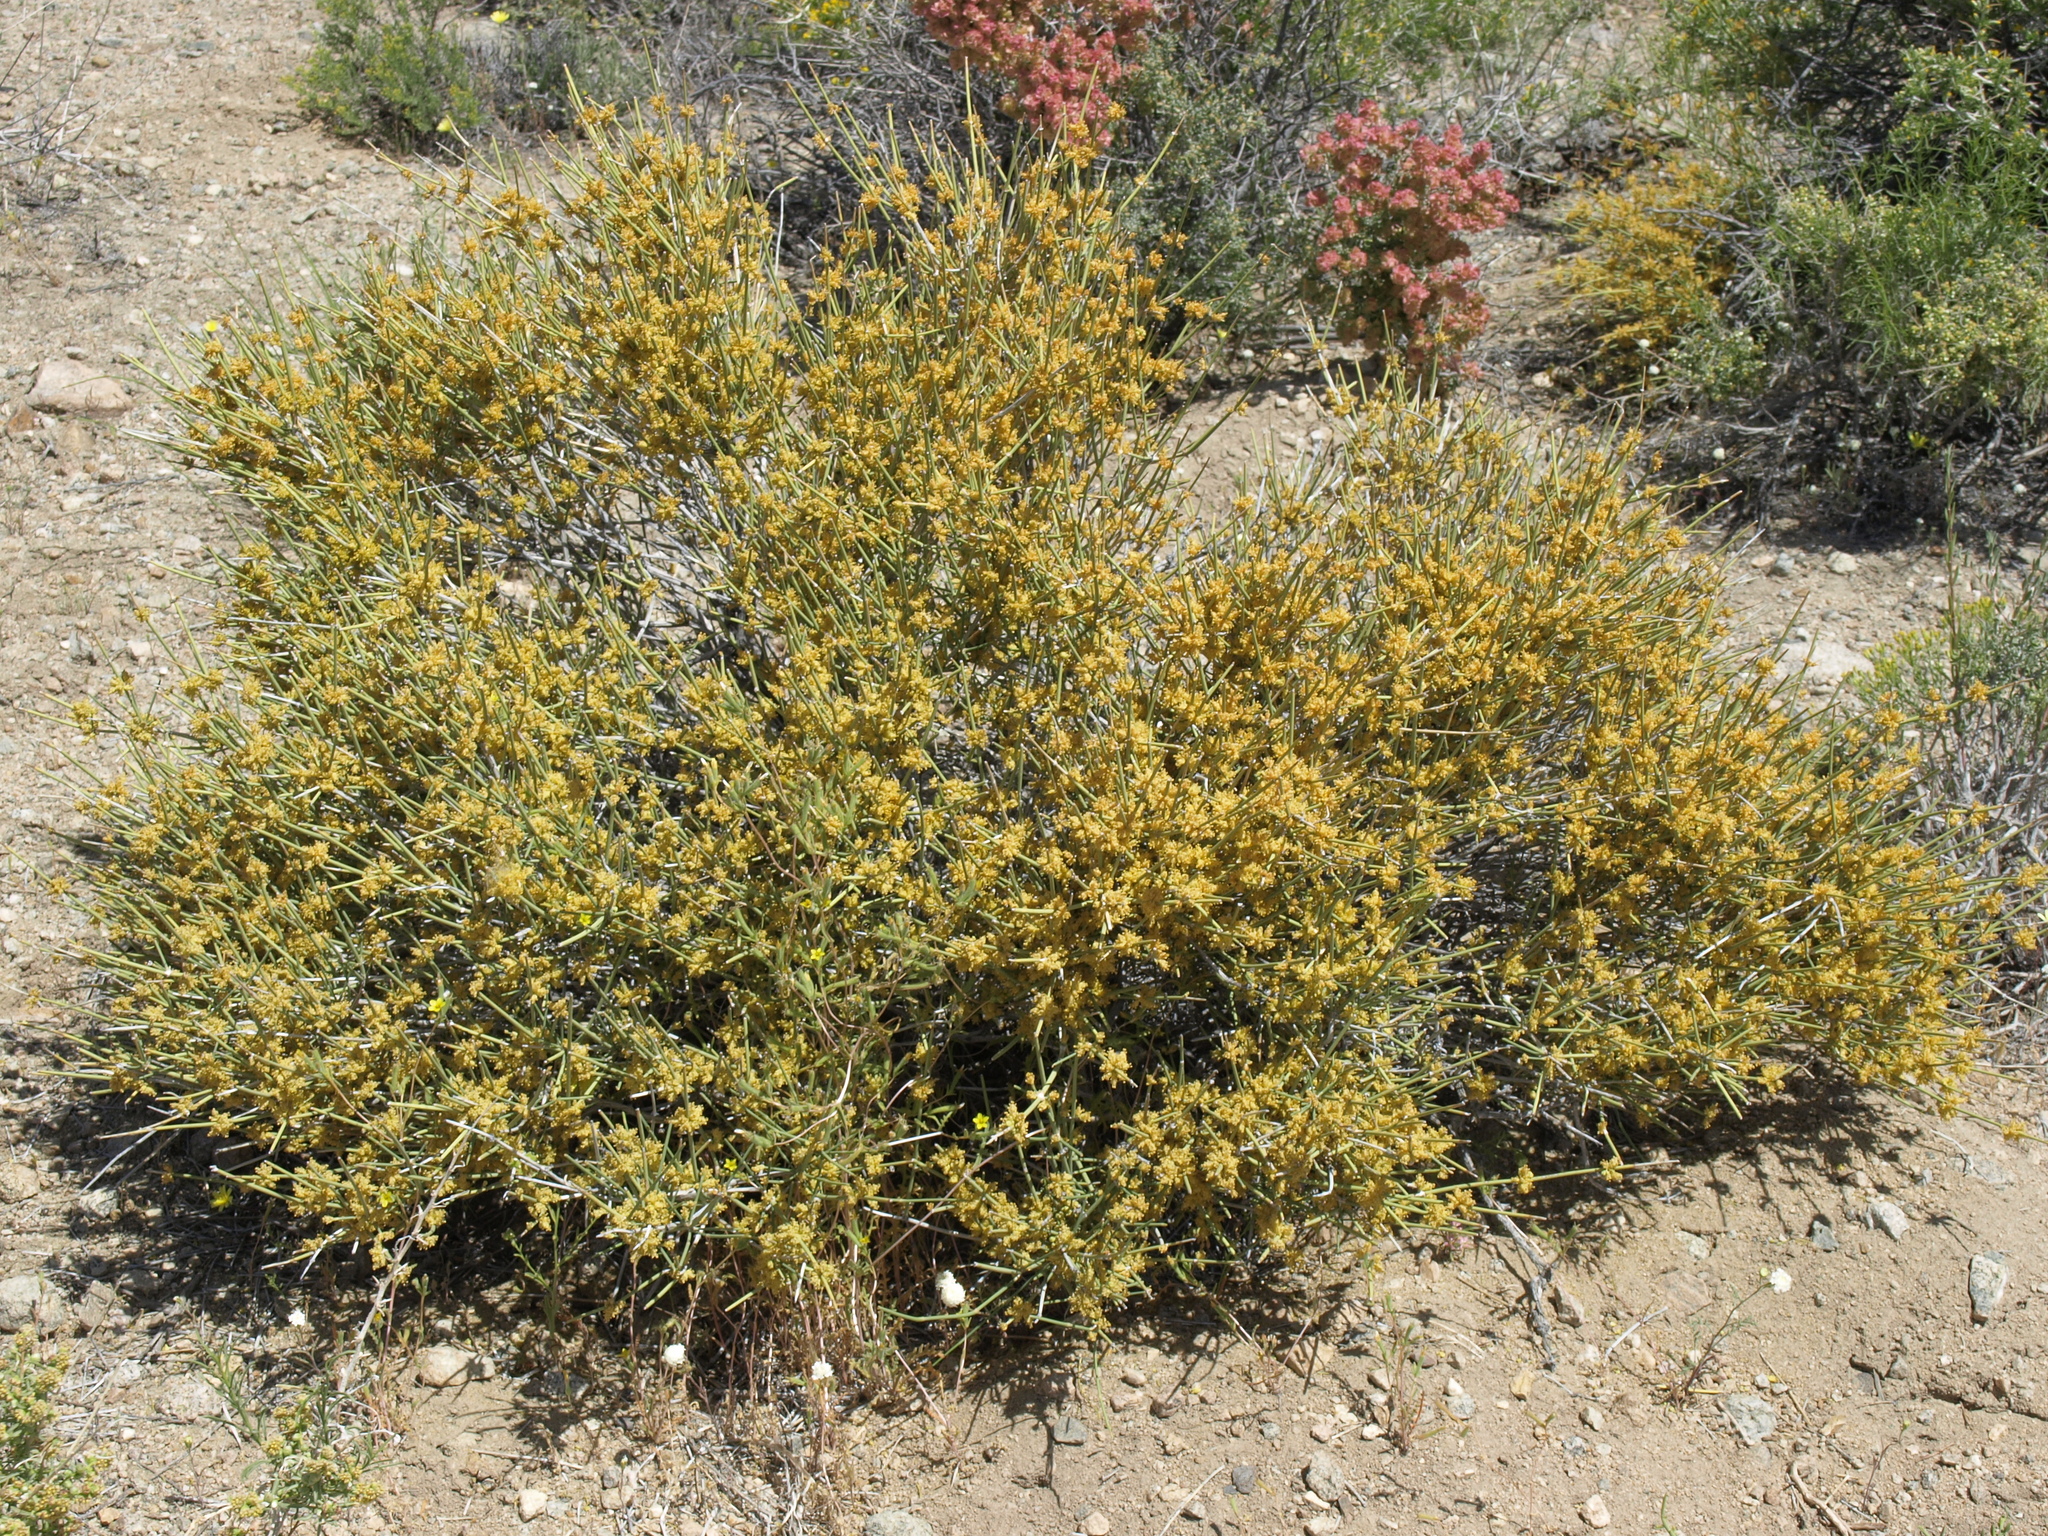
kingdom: Plantae
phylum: Tracheophyta
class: Gnetopsida
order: Ephedrales
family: Ephedraceae
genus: Ephedra
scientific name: Ephedra nevadensis
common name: Gray ephedra
